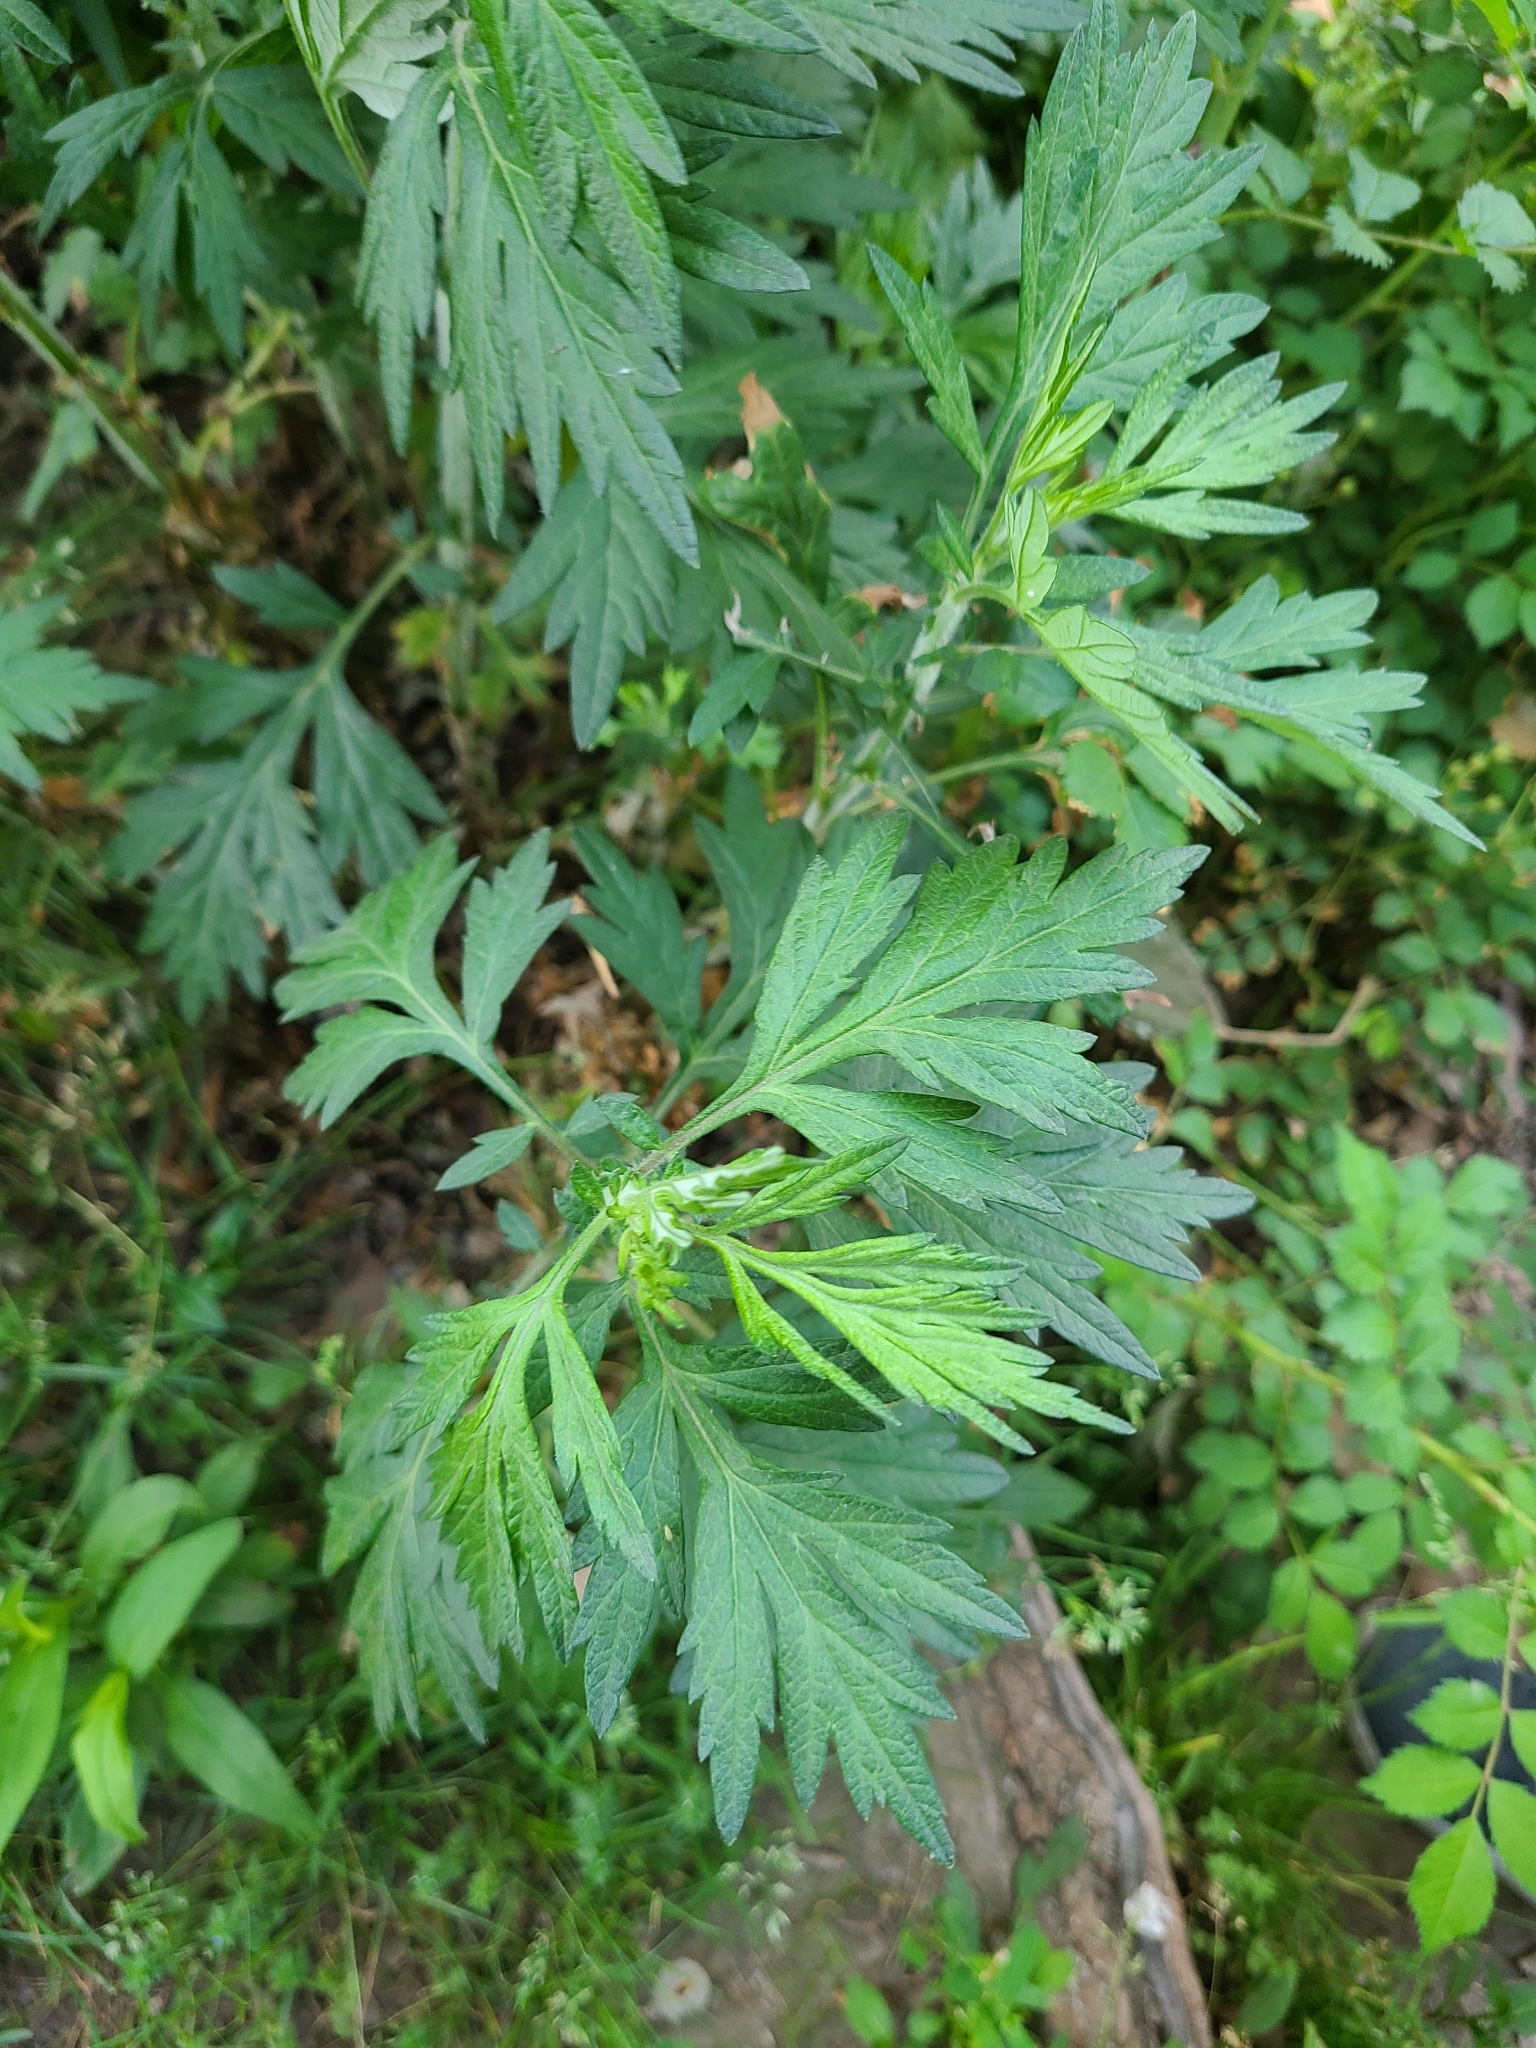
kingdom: Plantae
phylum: Tracheophyta
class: Magnoliopsida
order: Asterales
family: Asteraceae
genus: Artemisia
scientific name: Artemisia vulgaris
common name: Mugwort
